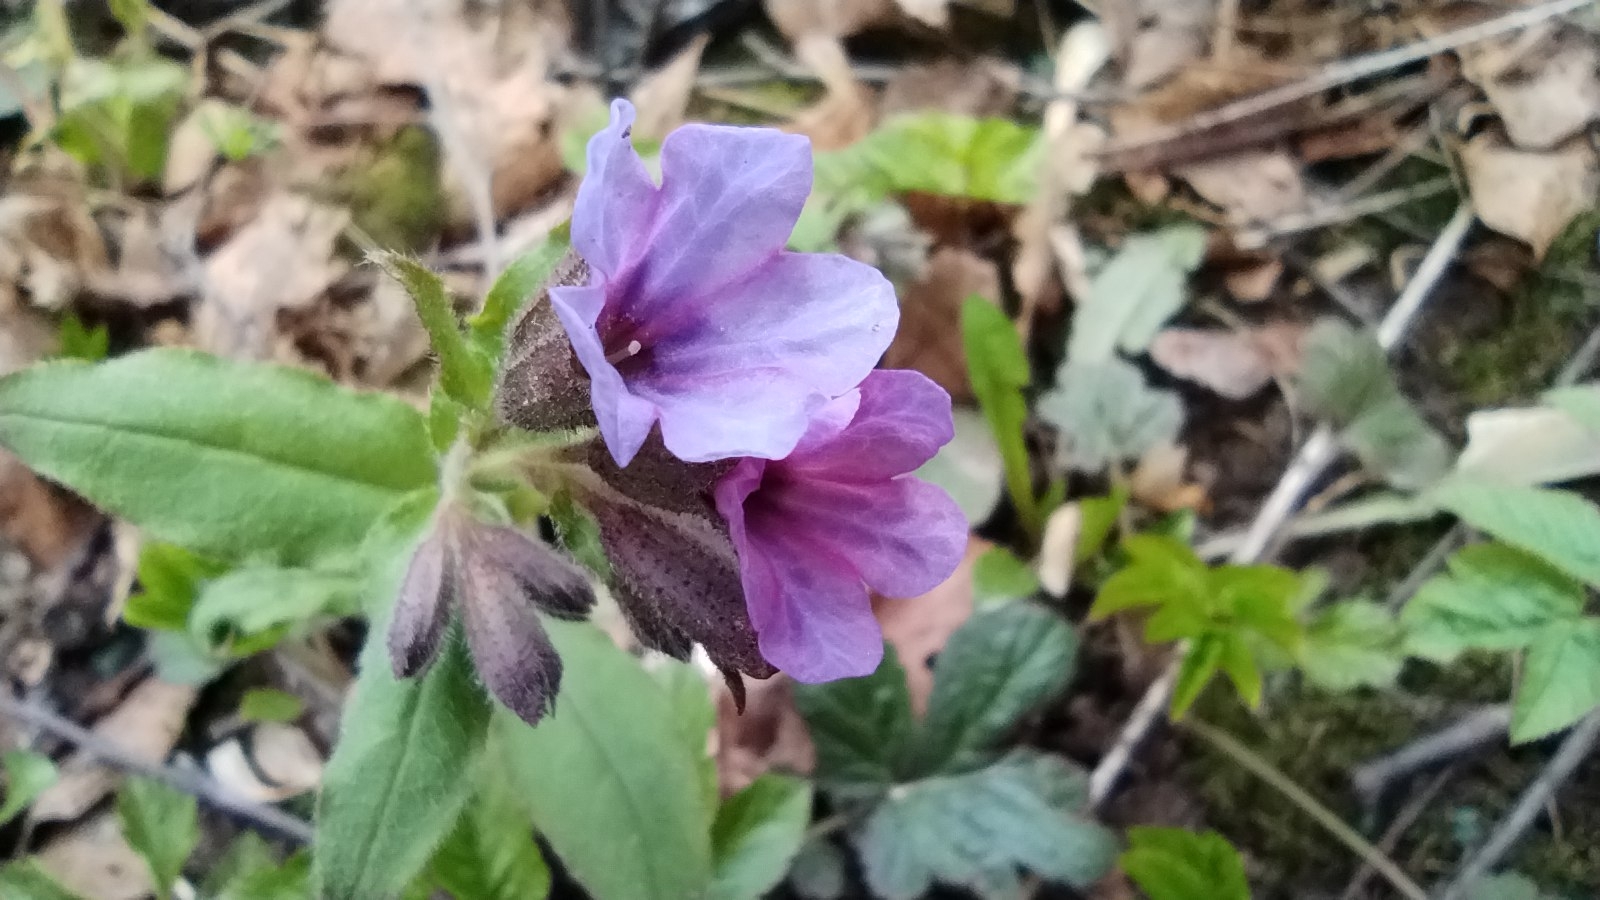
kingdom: Plantae
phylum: Tracheophyta
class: Magnoliopsida
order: Boraginales
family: Boraginaceae
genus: Pulmonaria
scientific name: Pulmonaria obscura
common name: Suffolk lungwort
